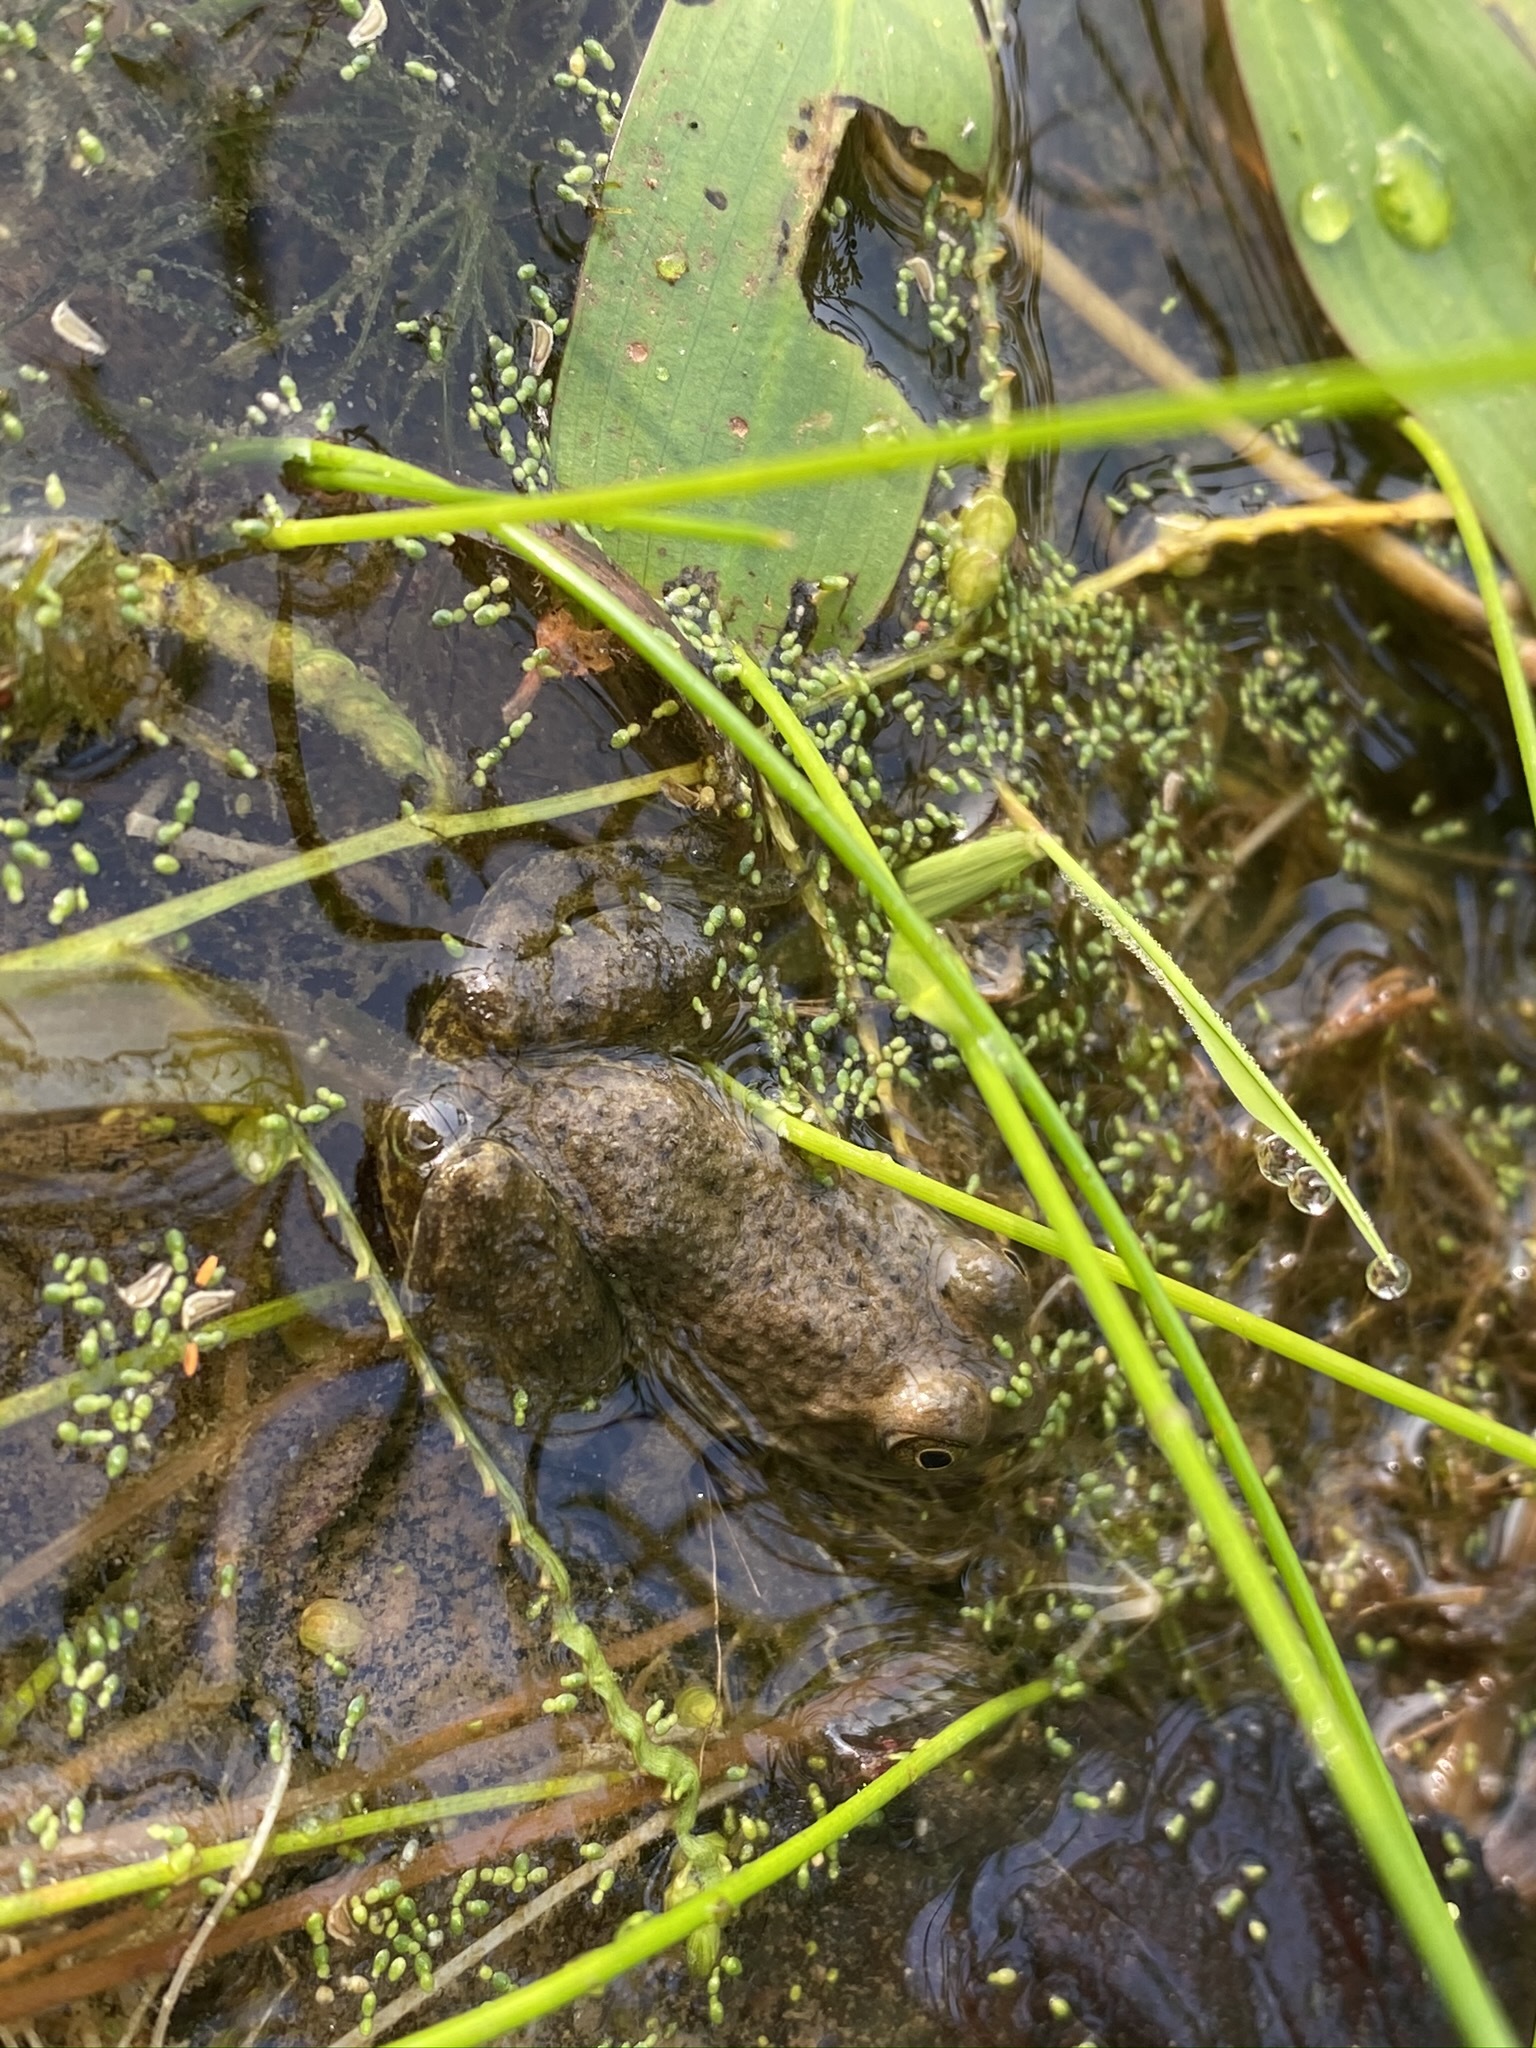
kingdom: Animalia
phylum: Chordata
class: Amphibia
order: Anura
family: Ranidae
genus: Lithobates
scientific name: Lithobates catesbeianus
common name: American bullfrog
